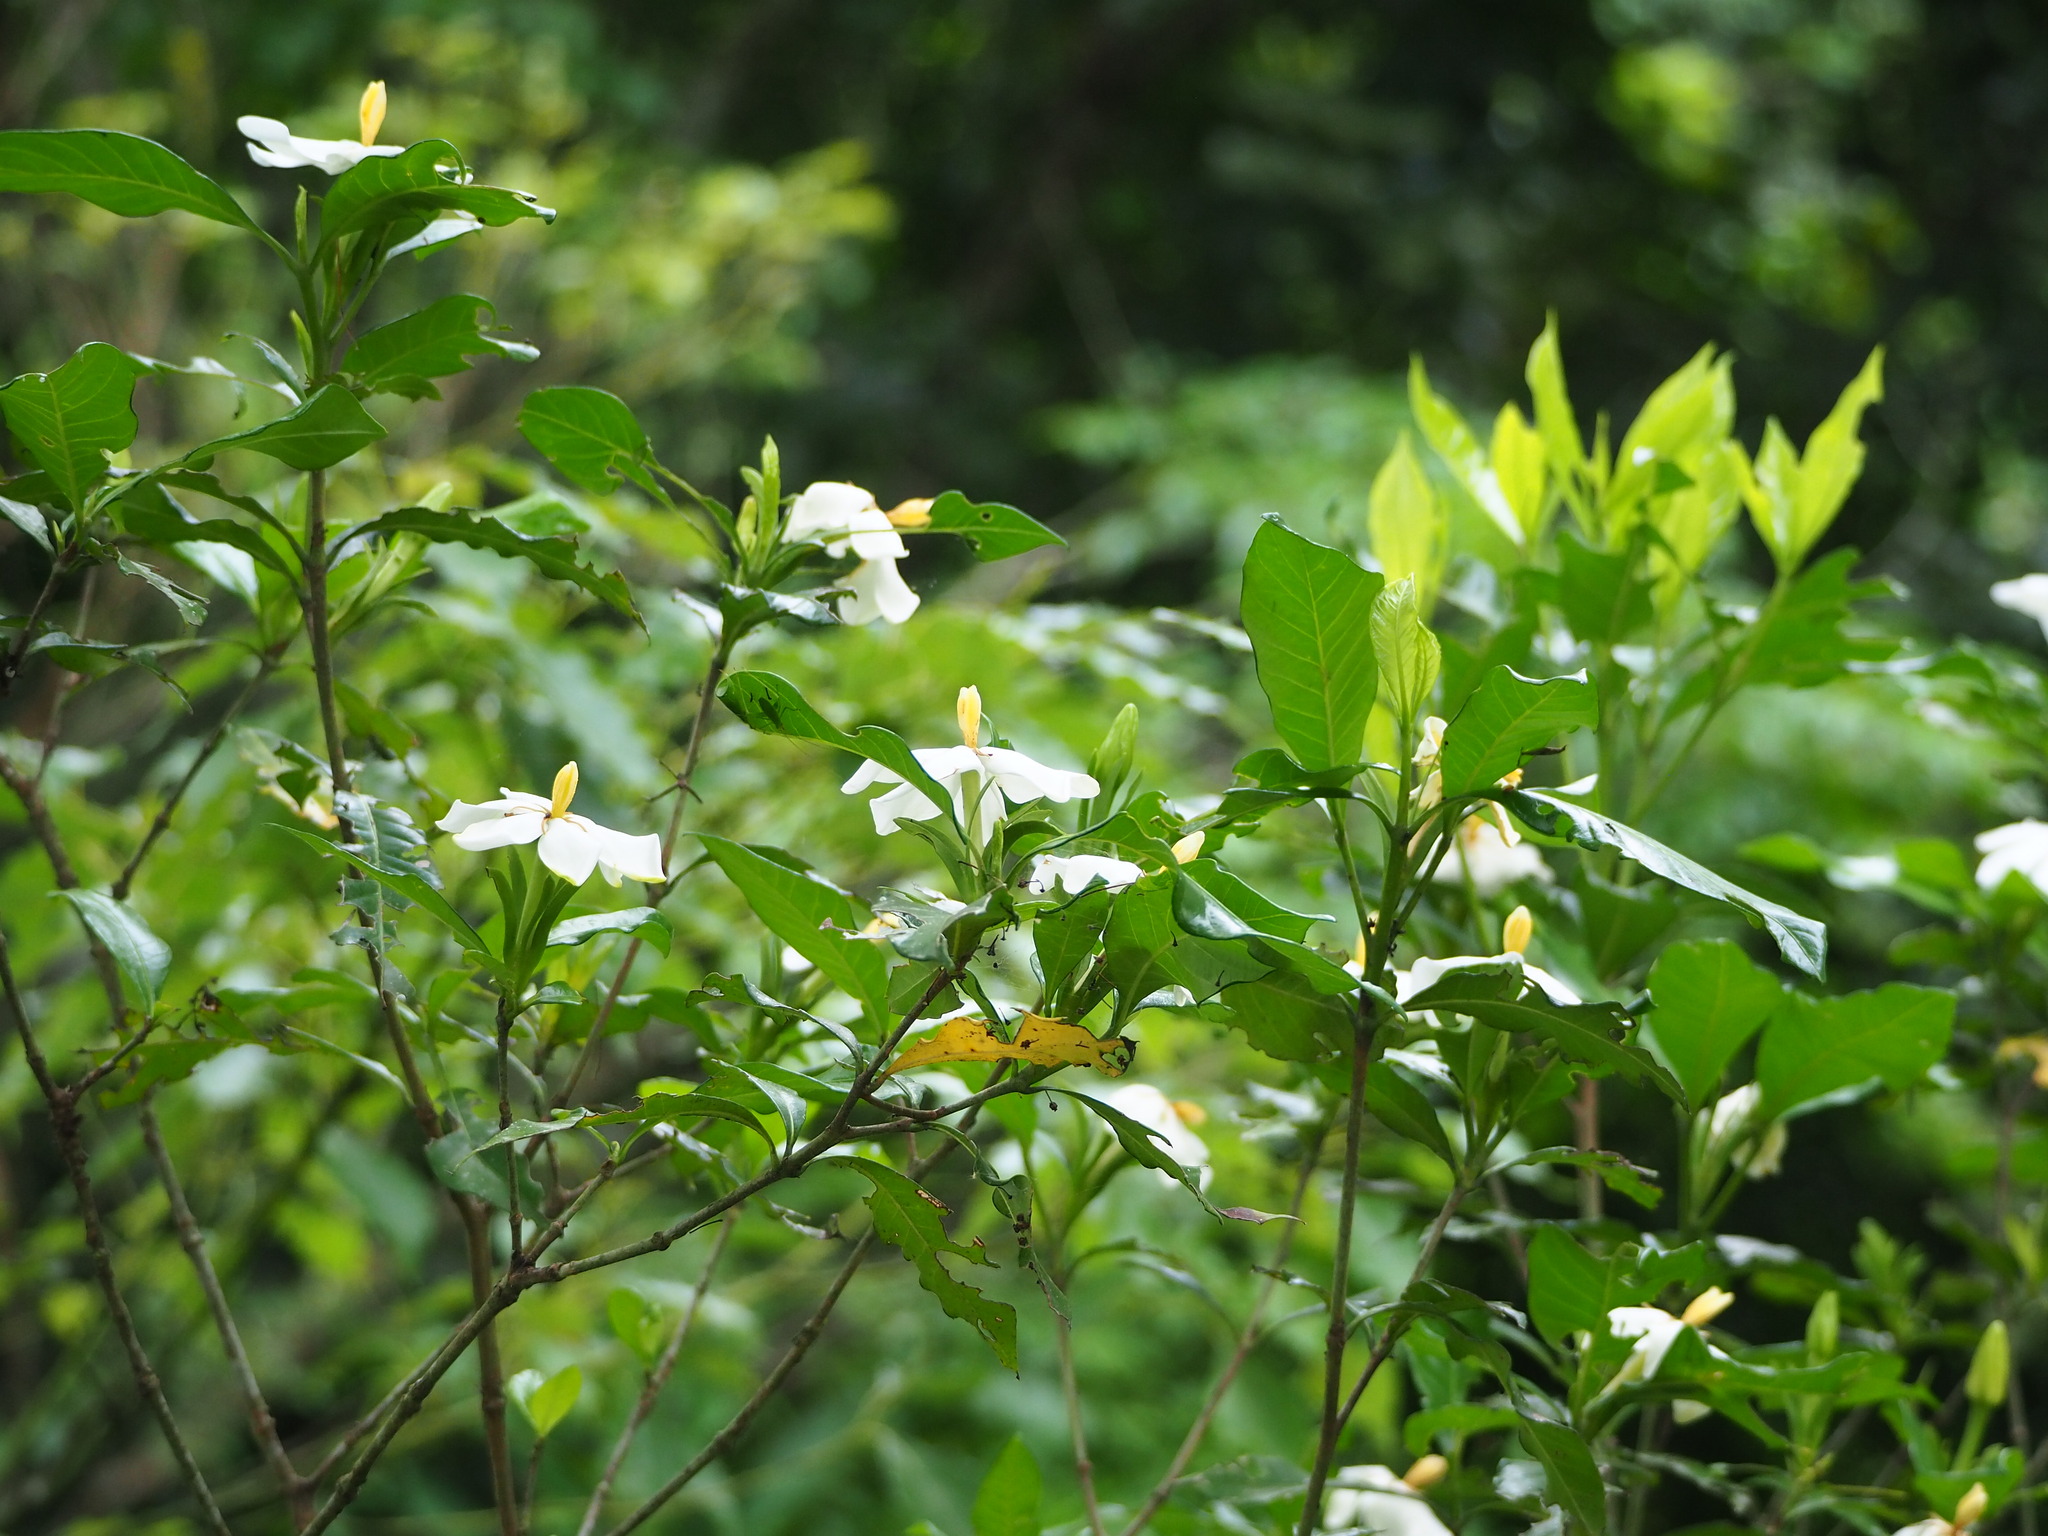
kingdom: Plantae
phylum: Tracheophyta
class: Magnoliopsida
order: Gentianales
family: Rubiaceae
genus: Gardenia
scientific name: Gardenia jasminoides
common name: Cape-jasmine
